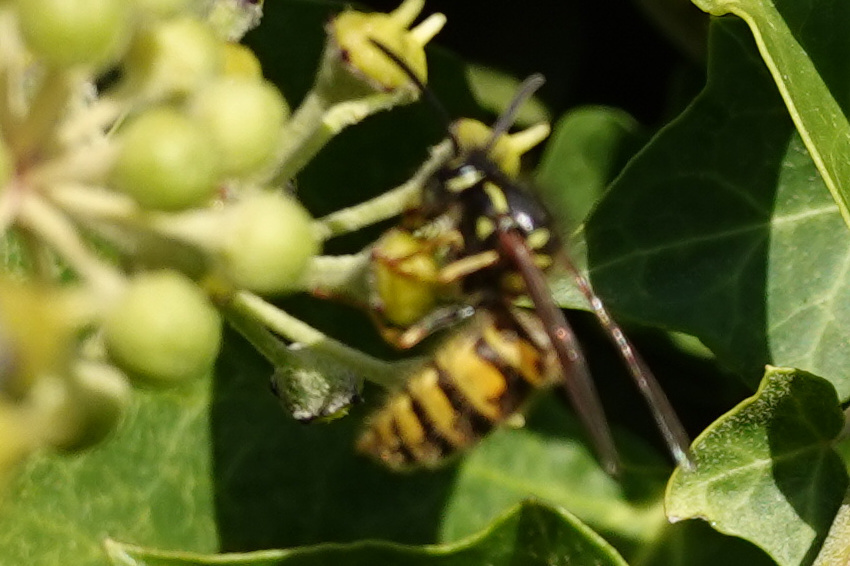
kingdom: Animalia
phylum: Arthropoda
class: Insecta
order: Hymenoptera
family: Vespidae
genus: Vespula
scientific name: Vespula vulgaris
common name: Common wasp
